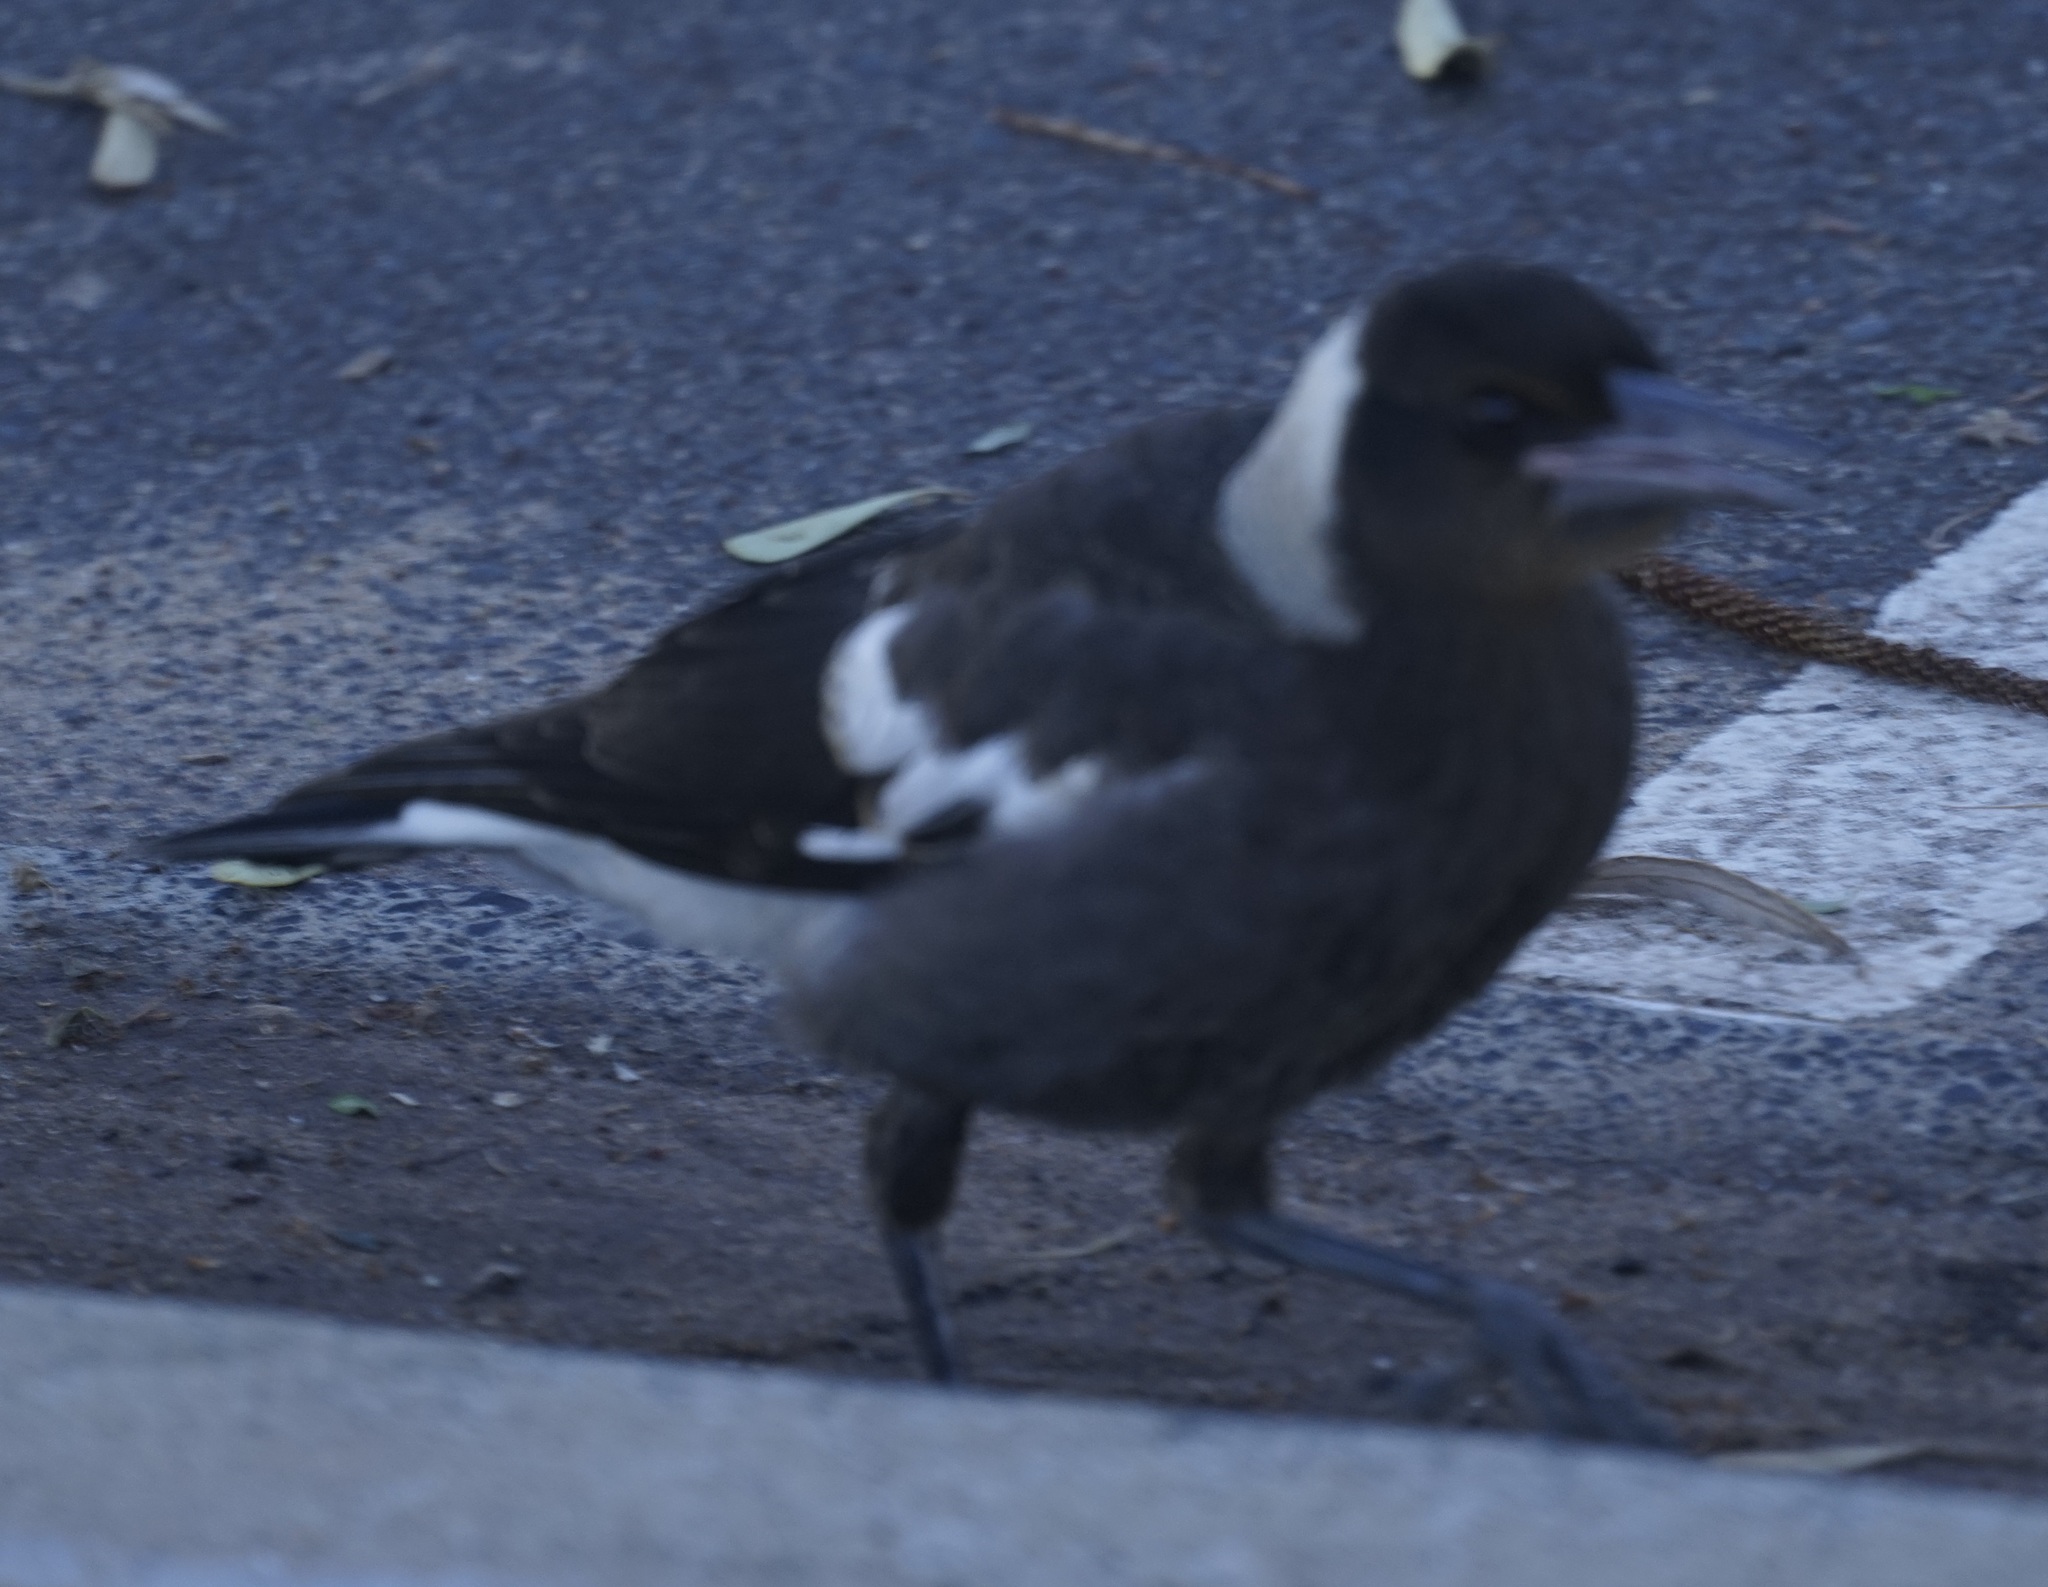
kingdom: Animalia
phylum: Chordata
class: Aves
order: Passeriformes
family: Cracticidae
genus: Gymnorhina
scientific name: Gymnorhina tibicen
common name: Australian magpie
